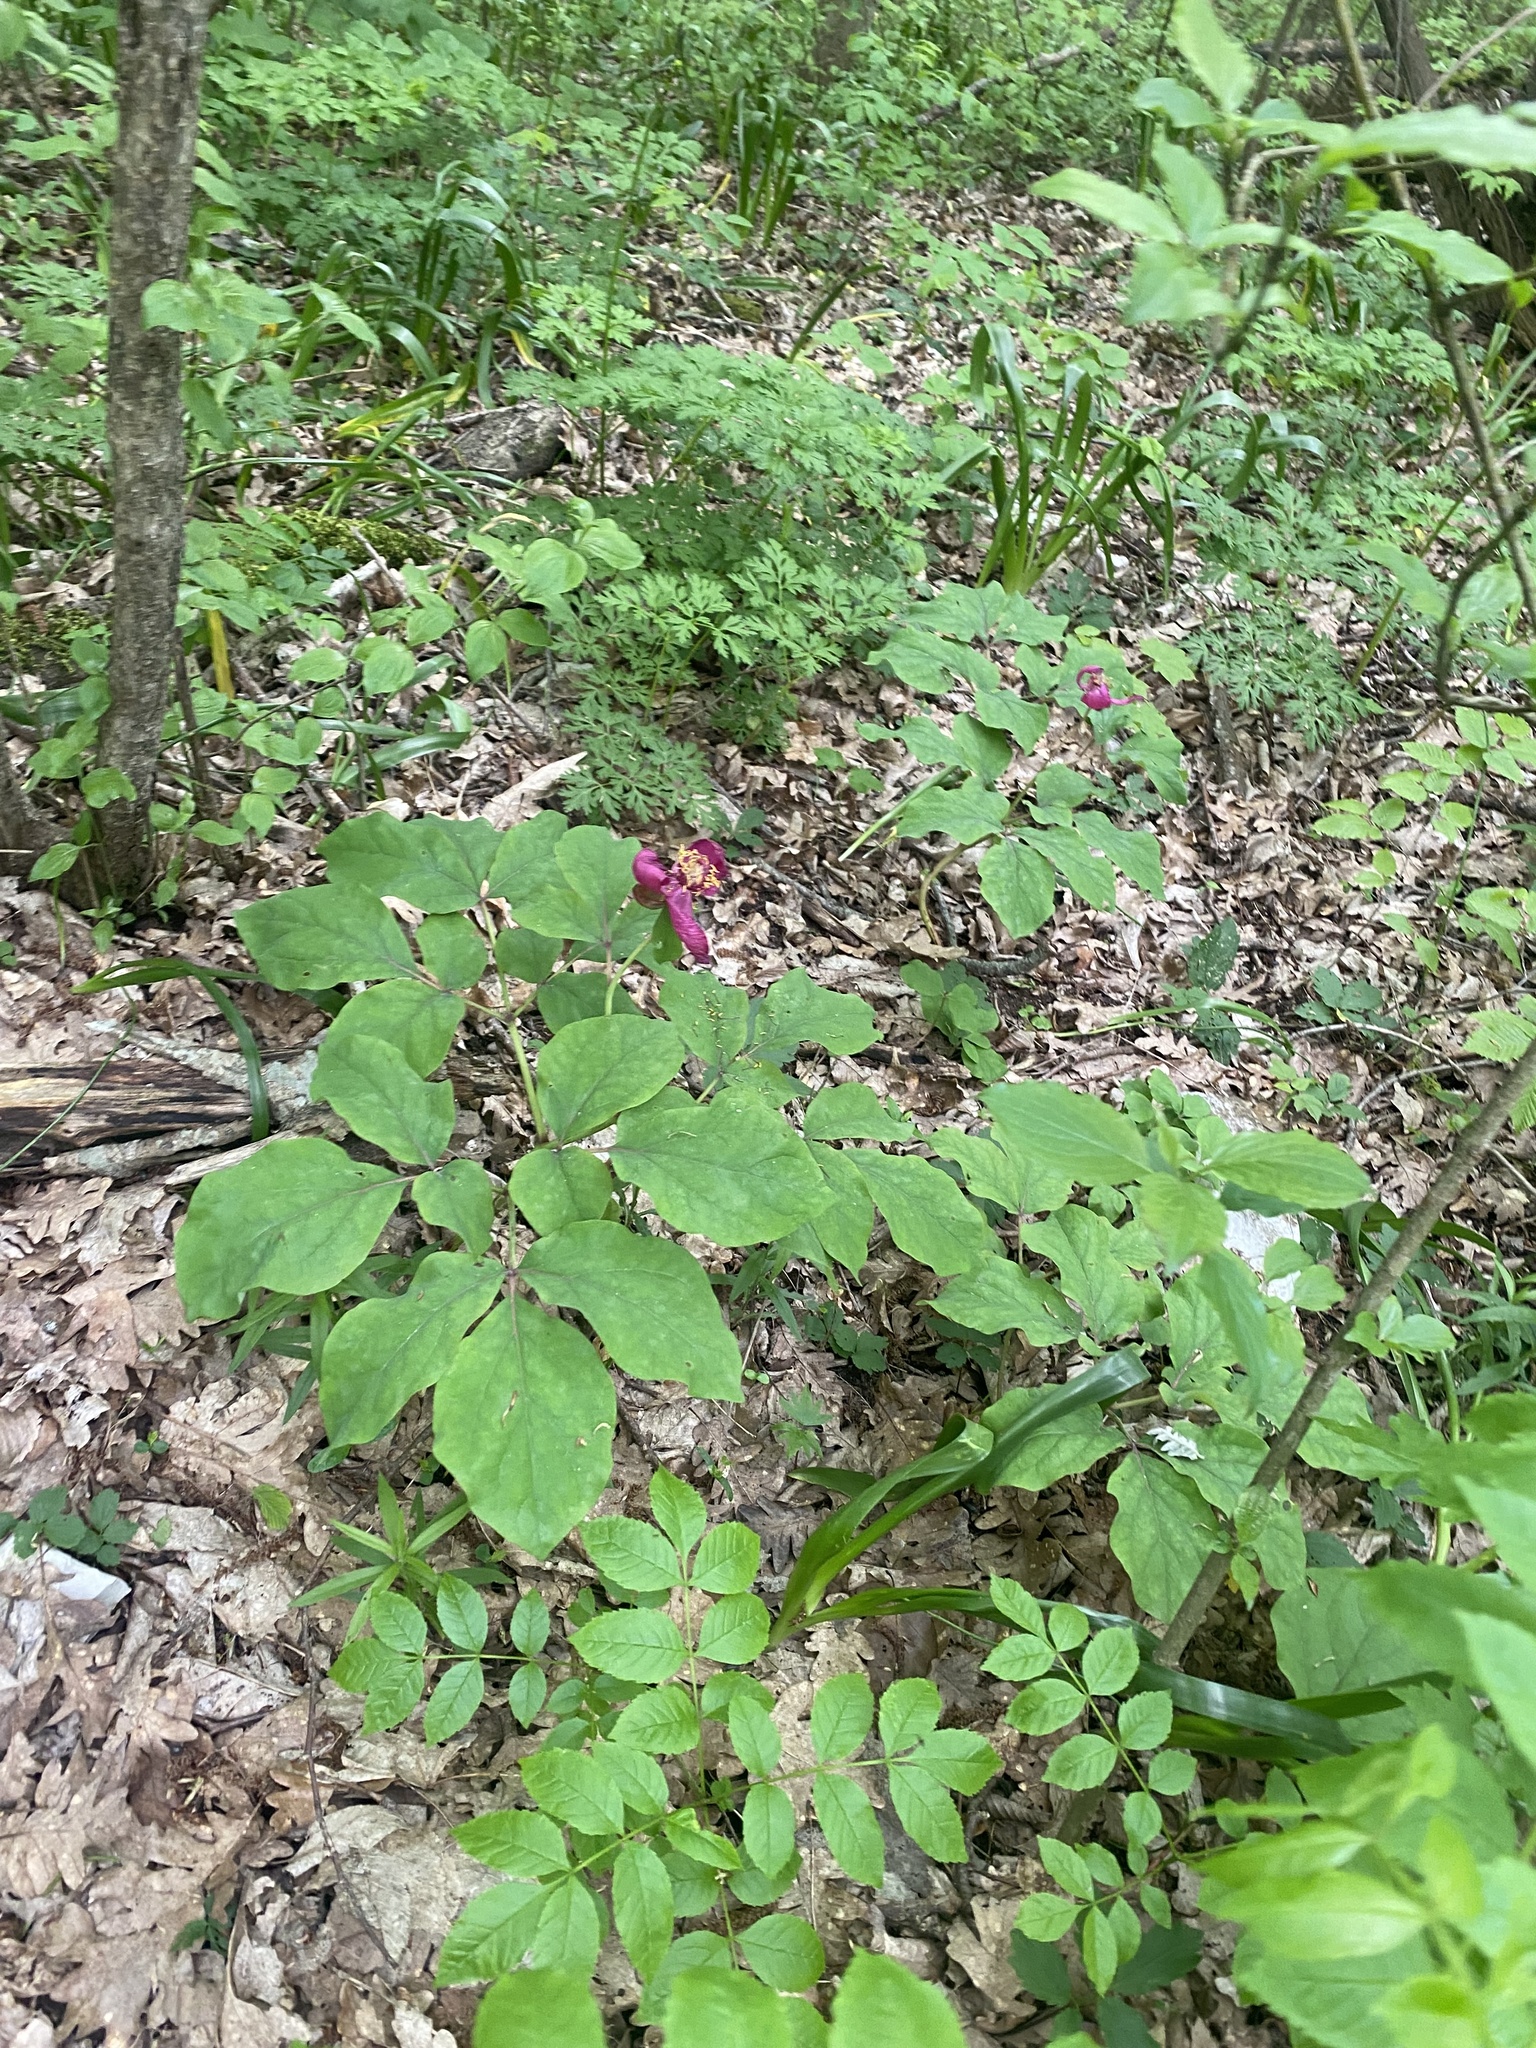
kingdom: Plantae
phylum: Tracheophyta
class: Magnoliopsida
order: Saxifragales
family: Paeoniaceae
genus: Paeonia
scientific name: Paeonia caucasica
